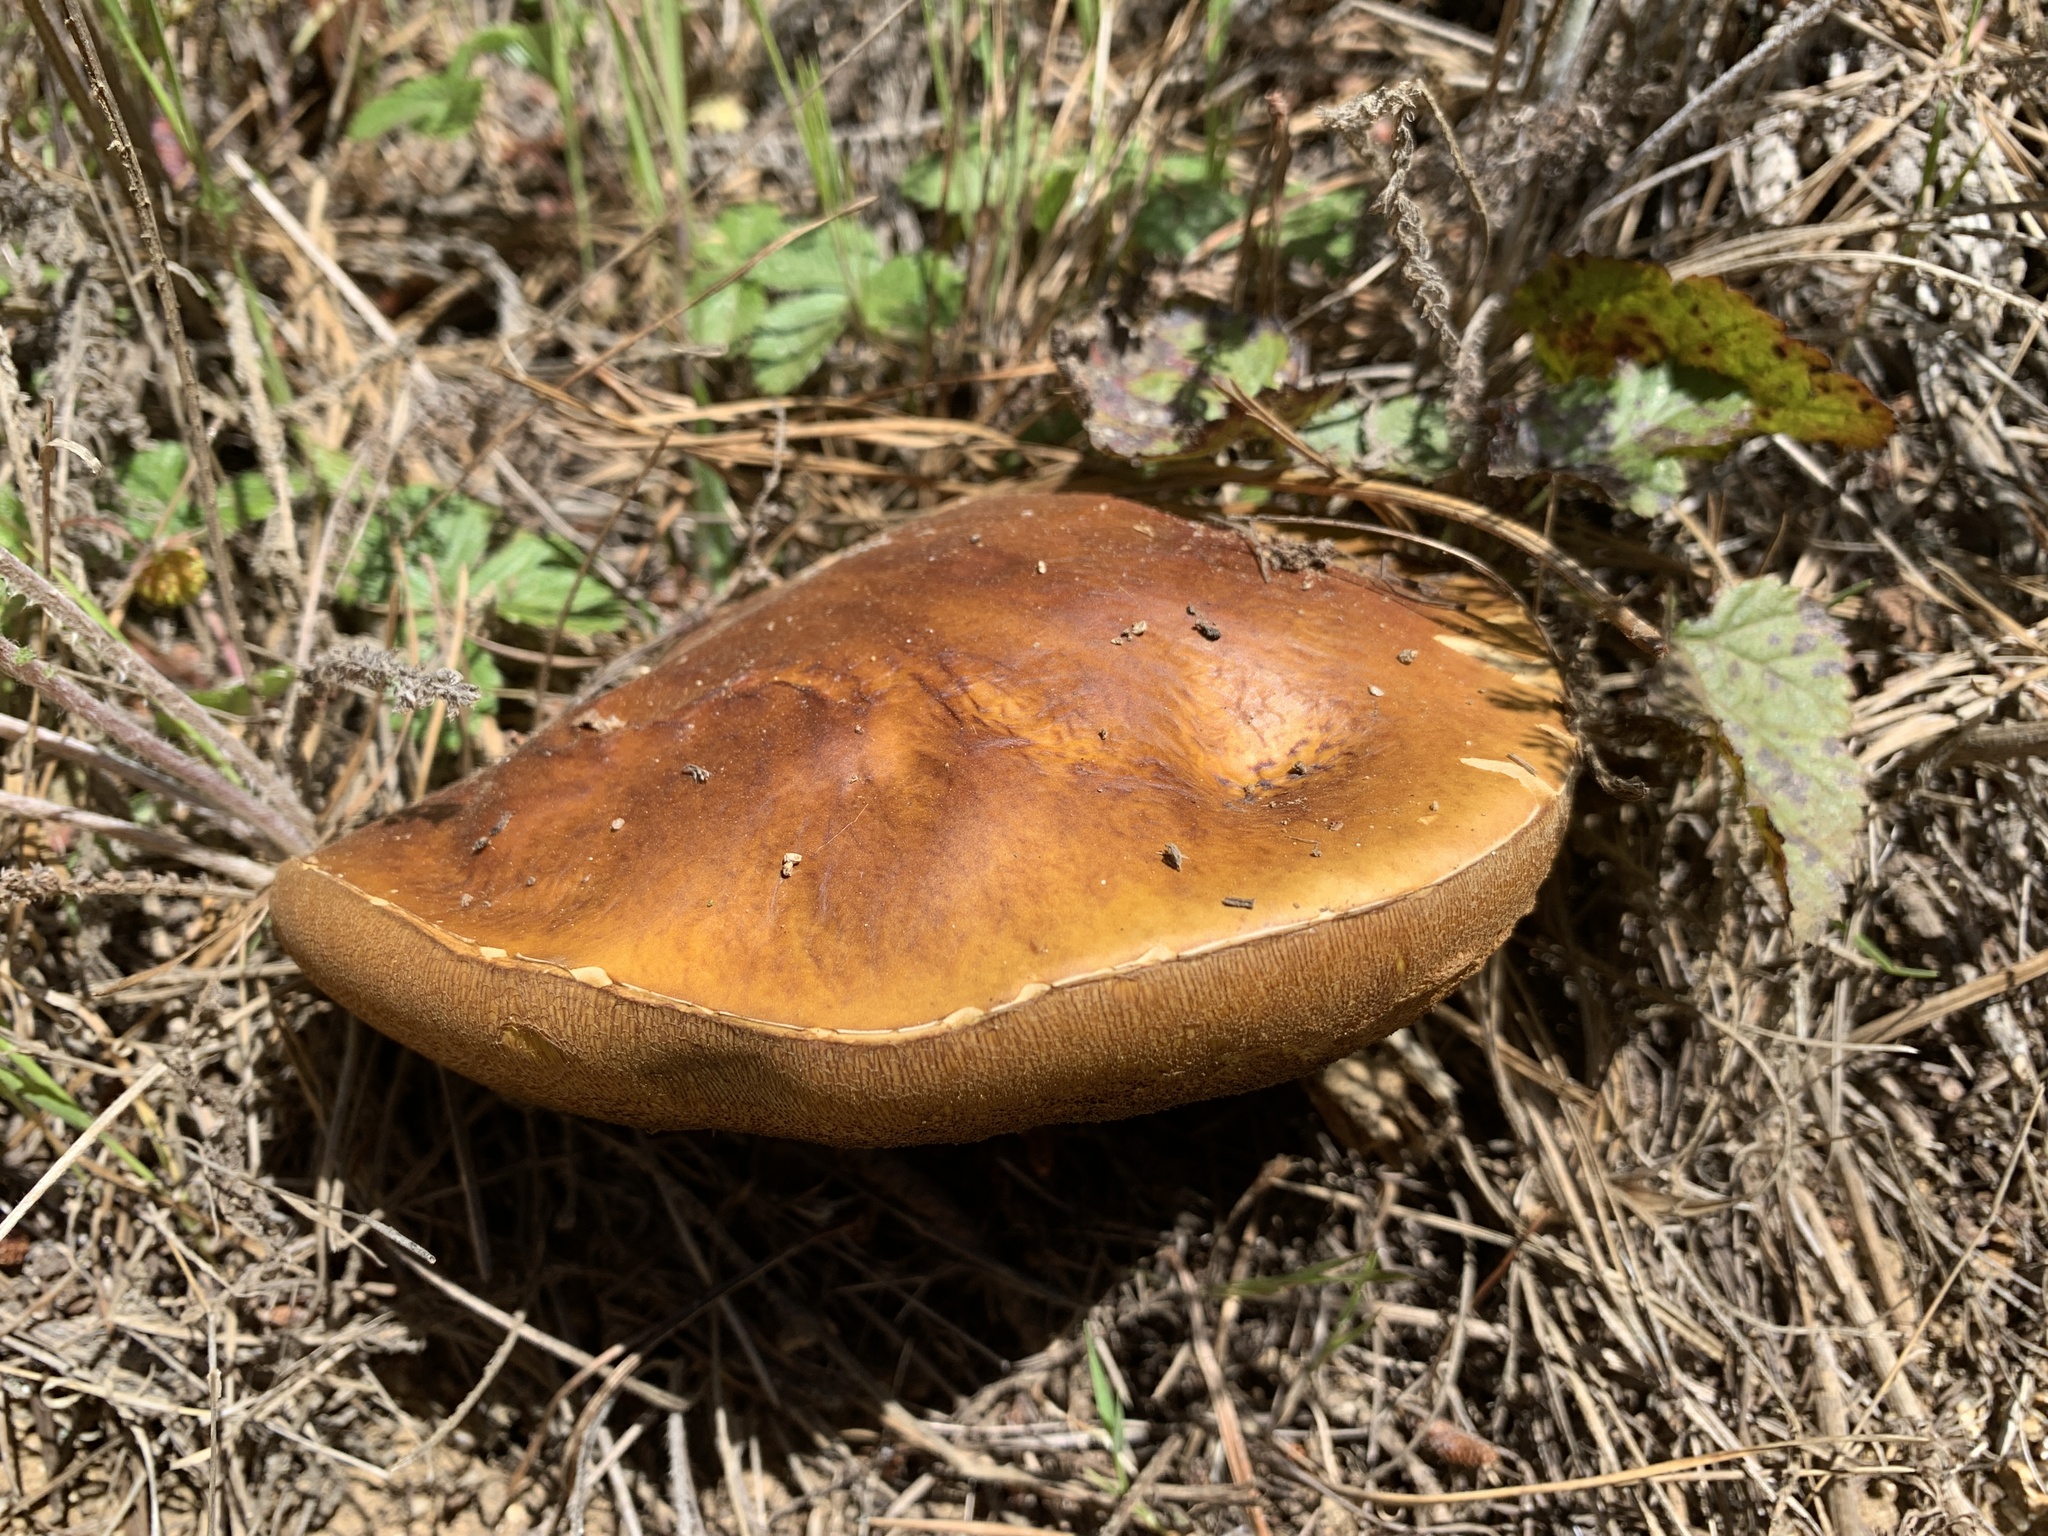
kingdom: Fungi
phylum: Basidiomycota
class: Agaricomycetes
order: Boletales
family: Boletaceae
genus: Boletus
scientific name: Boletus edulis
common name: Cep
